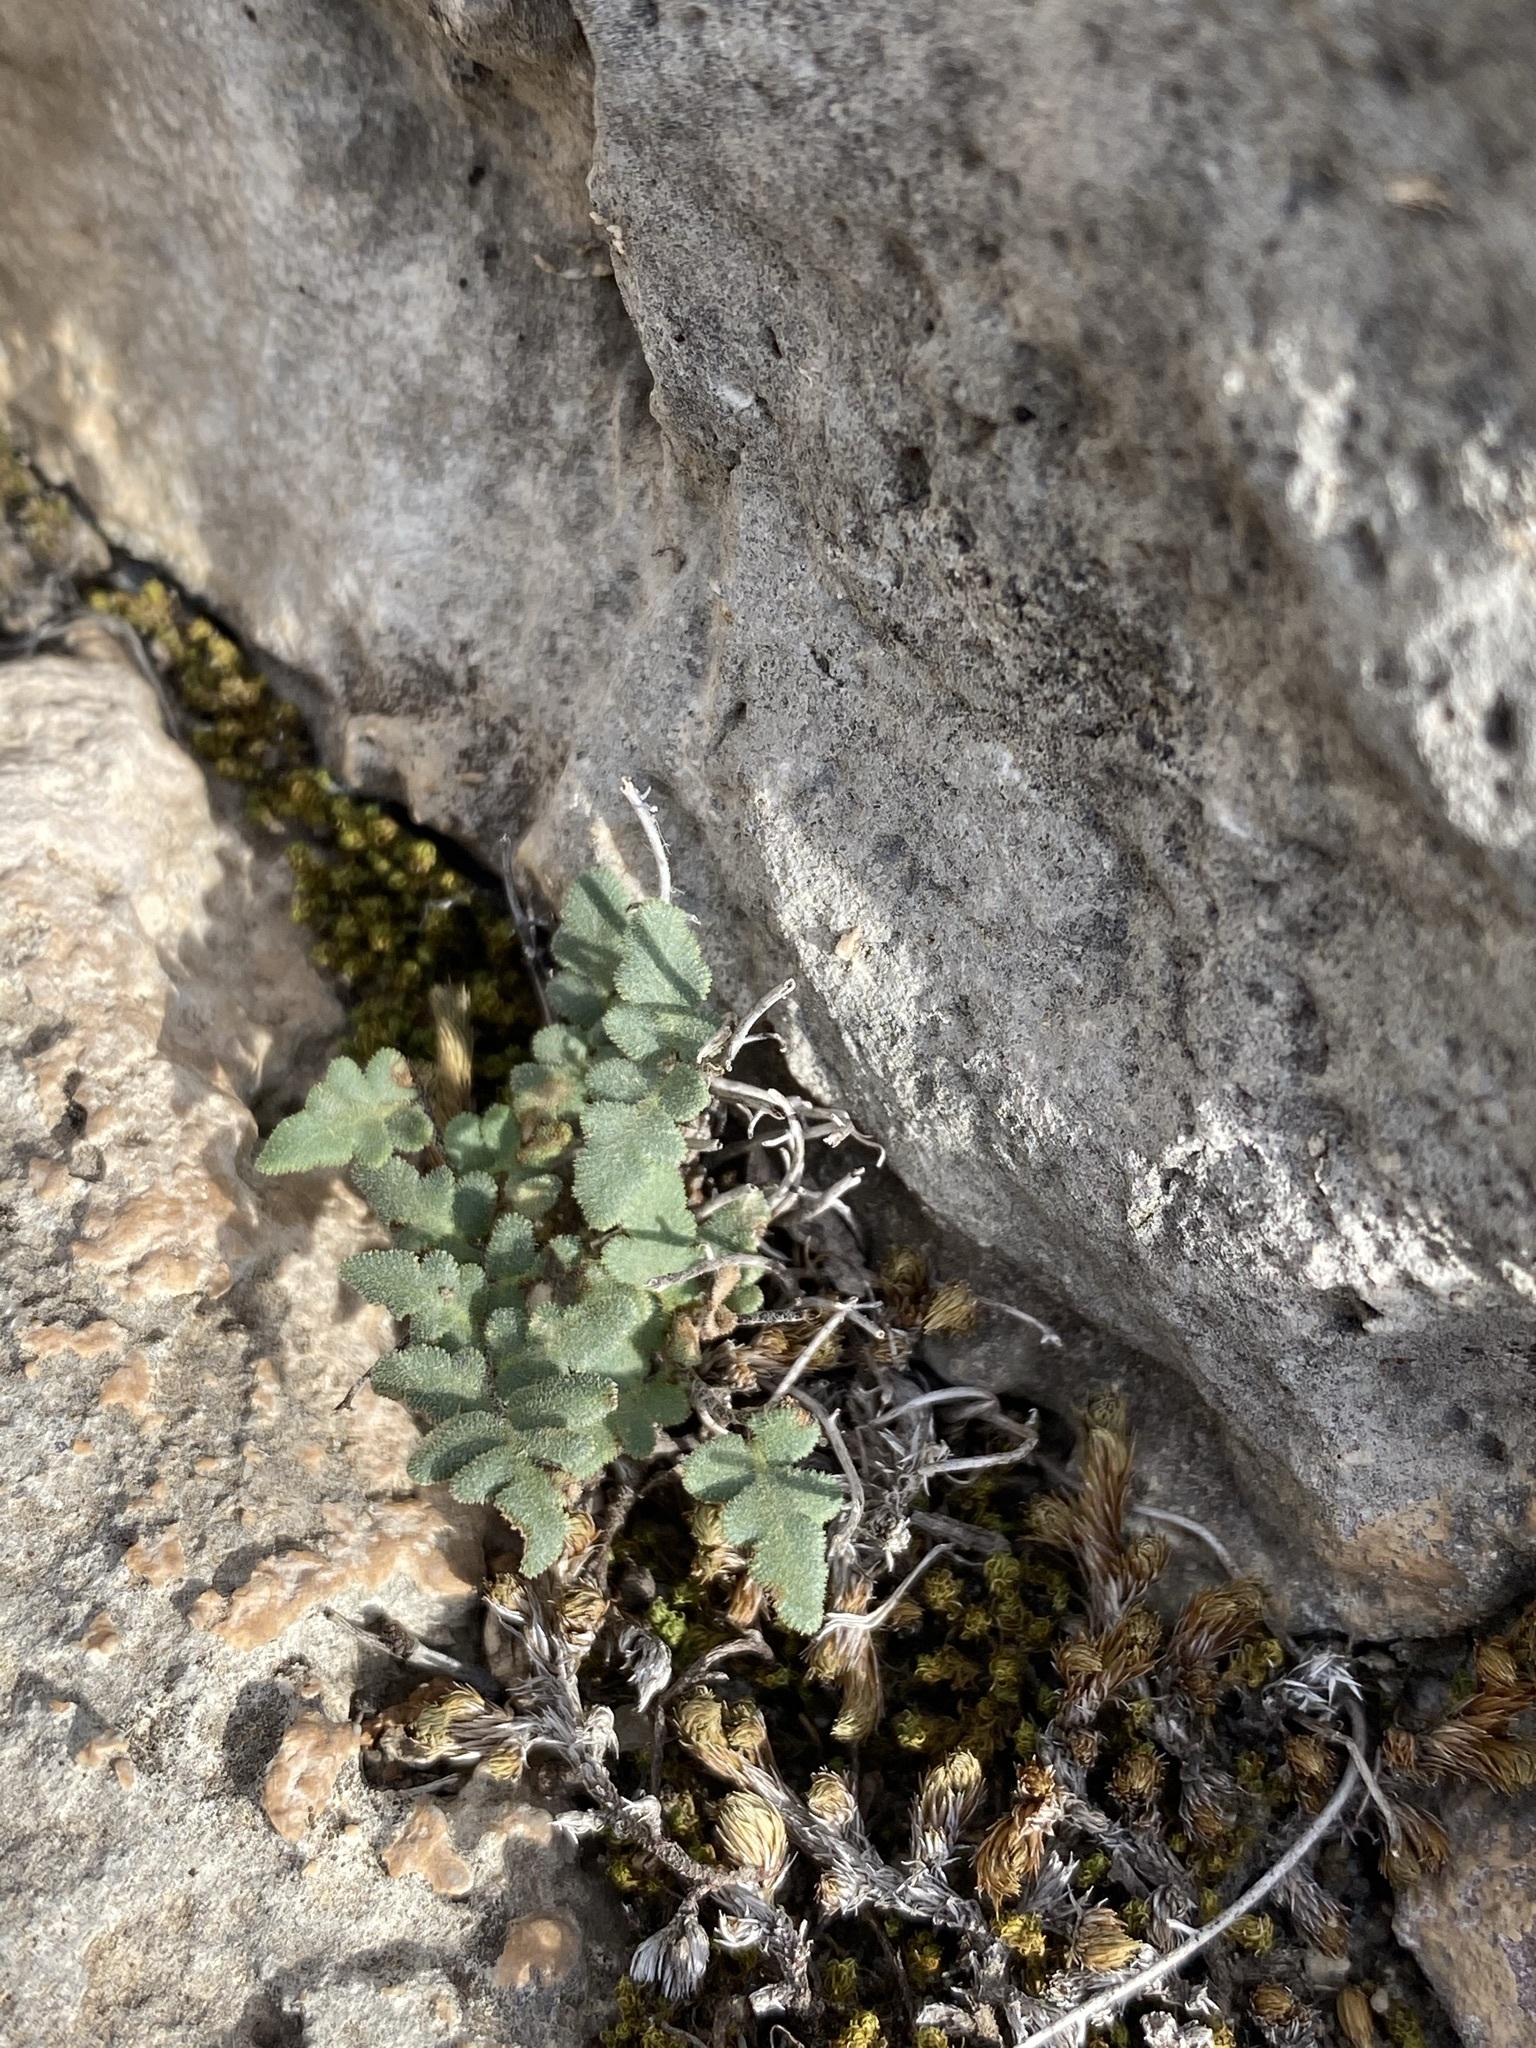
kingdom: Plantae
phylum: Tracheophyta
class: Polypodiopsida
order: Polypodiales
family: Pteridaceae
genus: Myriopteris
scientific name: Myriopteris scabra
